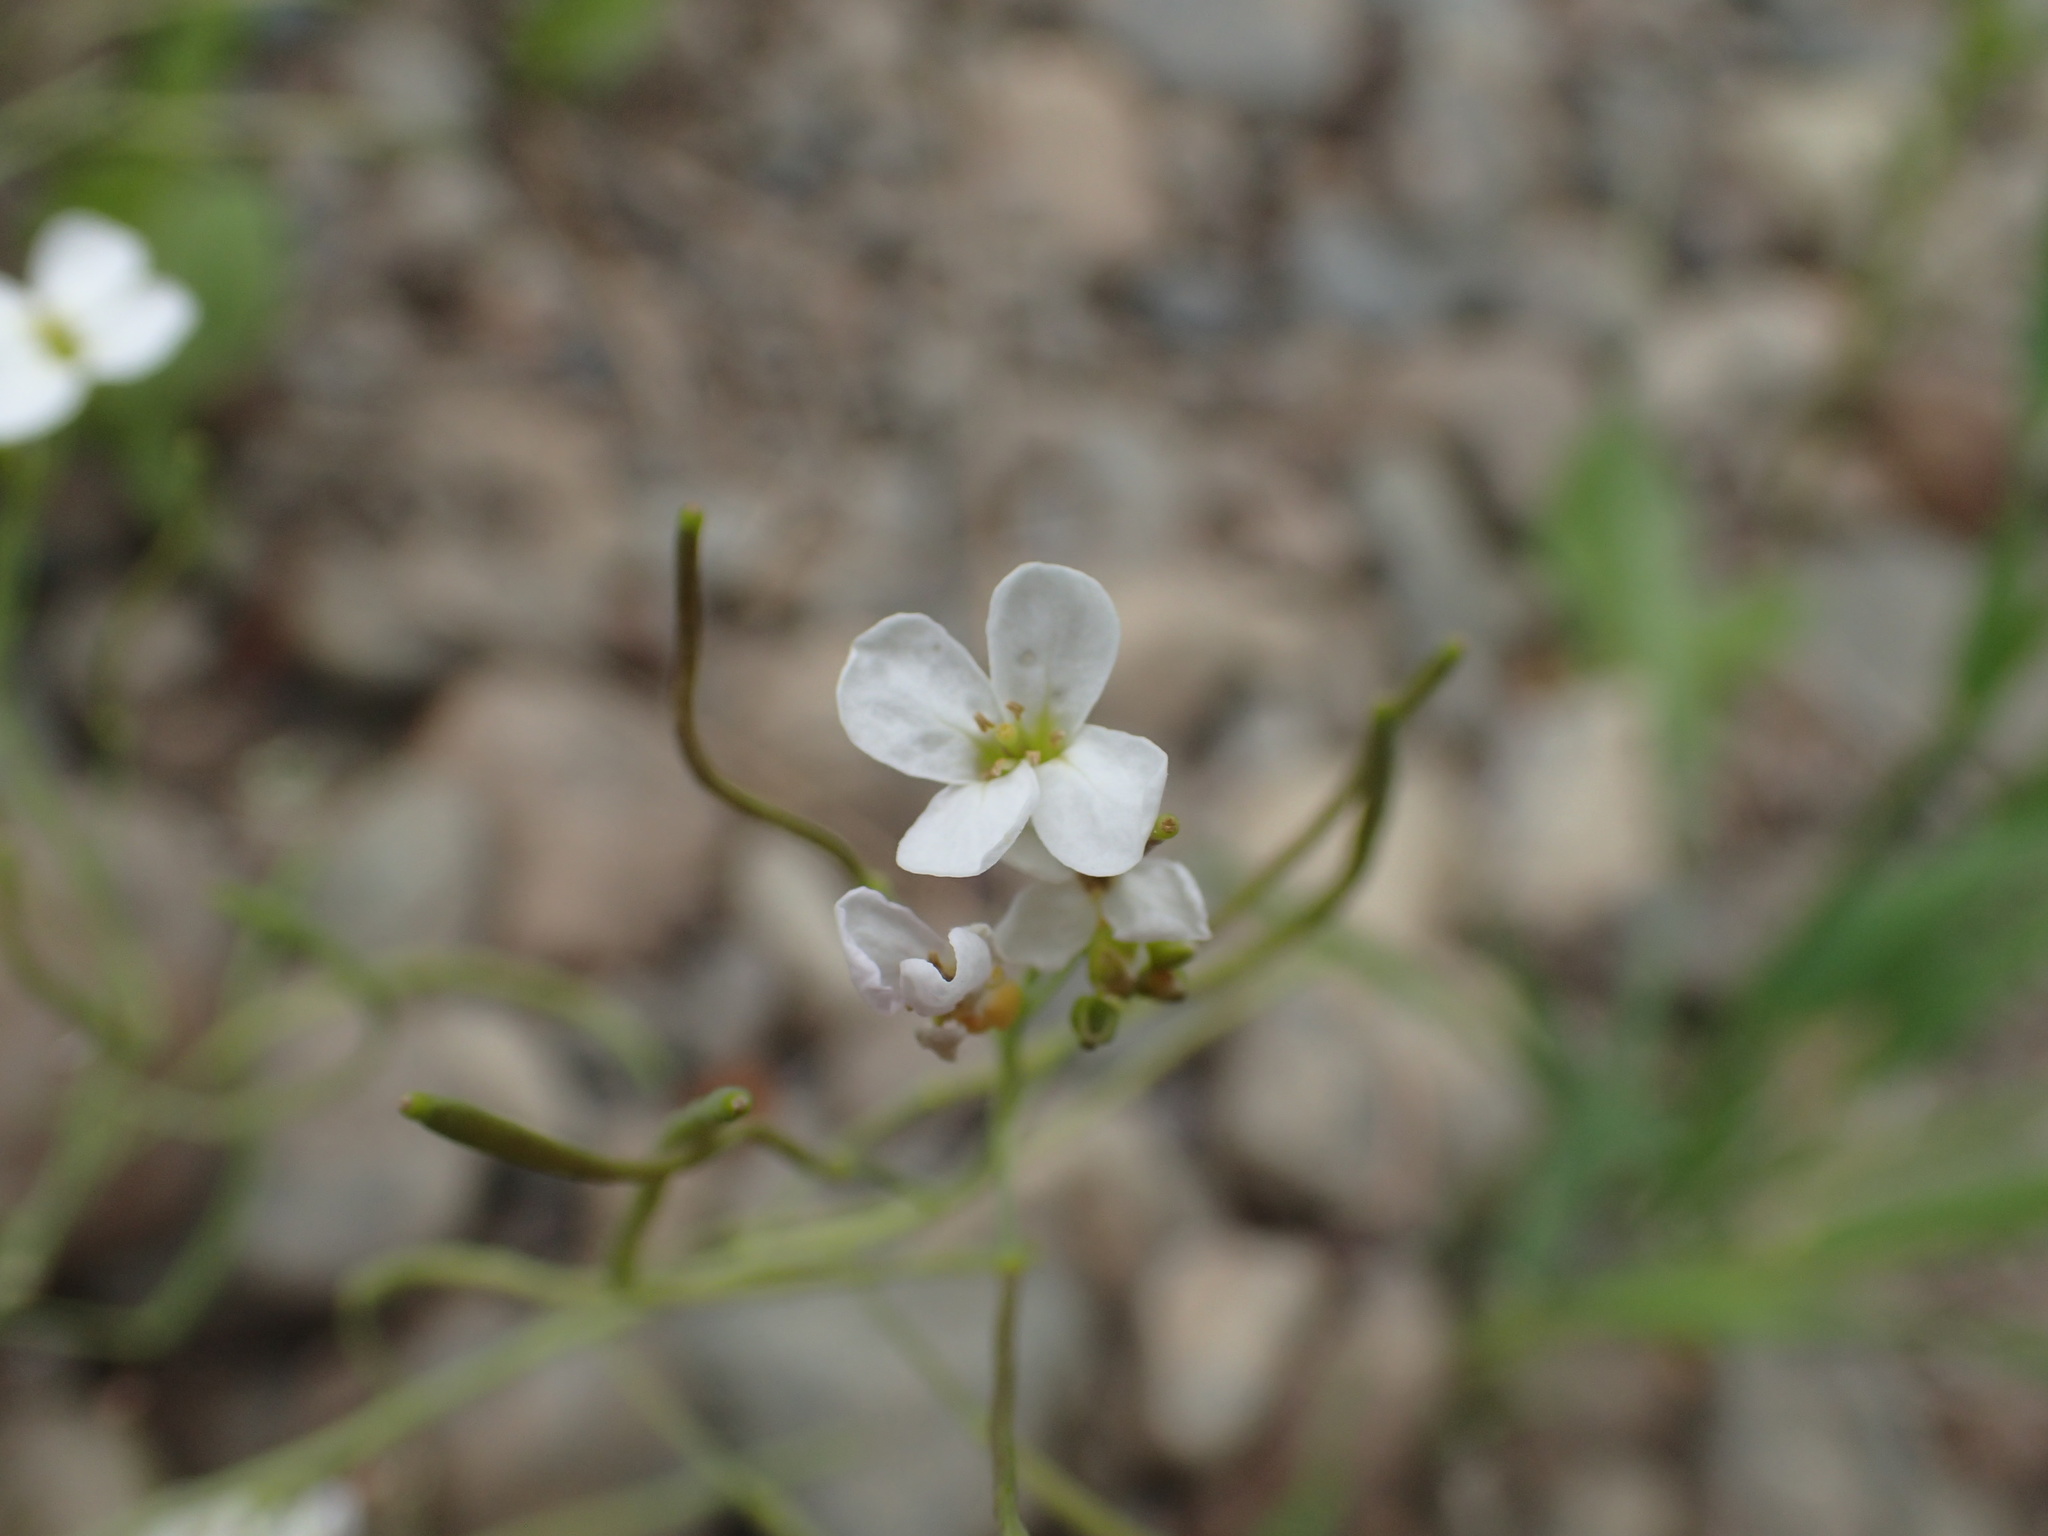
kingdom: Plantae
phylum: Tracheophyta
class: Magnoliopsida
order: Brassicales
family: Brassicaceae
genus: Arabidopsis
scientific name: Arabidopsis lyrata
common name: Lyrate rockcress
